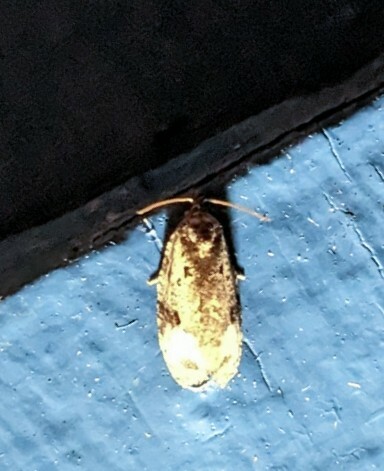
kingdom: Animalia
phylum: Arthropoda
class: Insecta
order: Lepidoptera
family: Tortricidae
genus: Apotomis
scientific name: Apotomis albeolana
